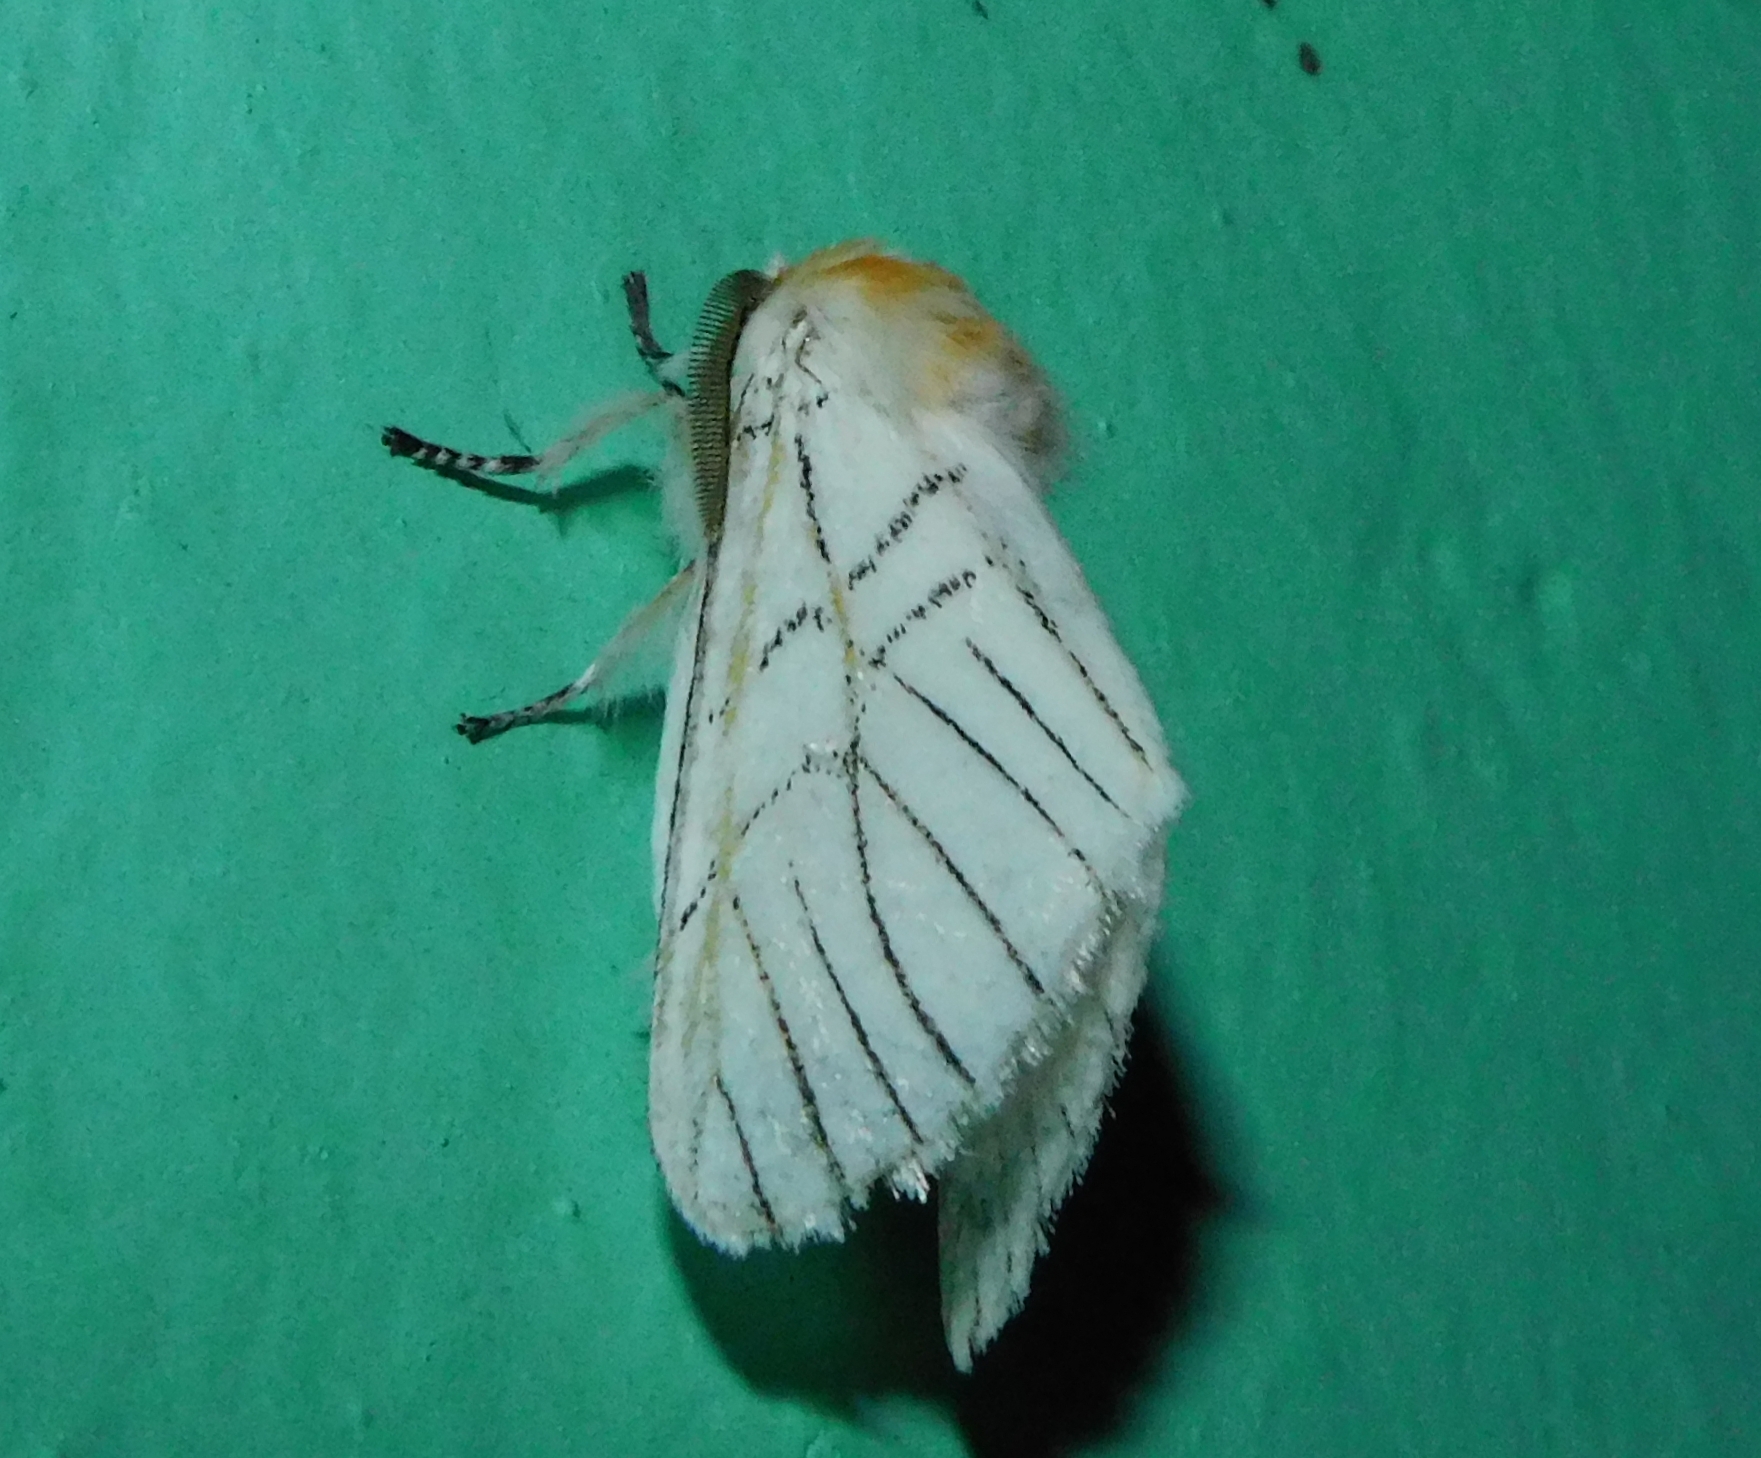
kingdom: Animalia
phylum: Arthropoda
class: Insecta
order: Lepidoptera
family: Notodontidae
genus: Oligoclona
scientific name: Oligoclona chrysolopha
